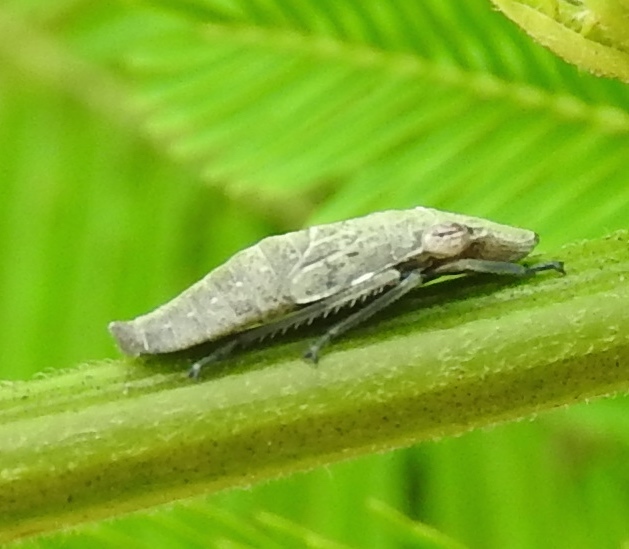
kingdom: Animalia
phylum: Arthropoda
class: Insecta
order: Hemiptera
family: Cicadellidae
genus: Homalodisca
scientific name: Homalodisca ichthyocephala
